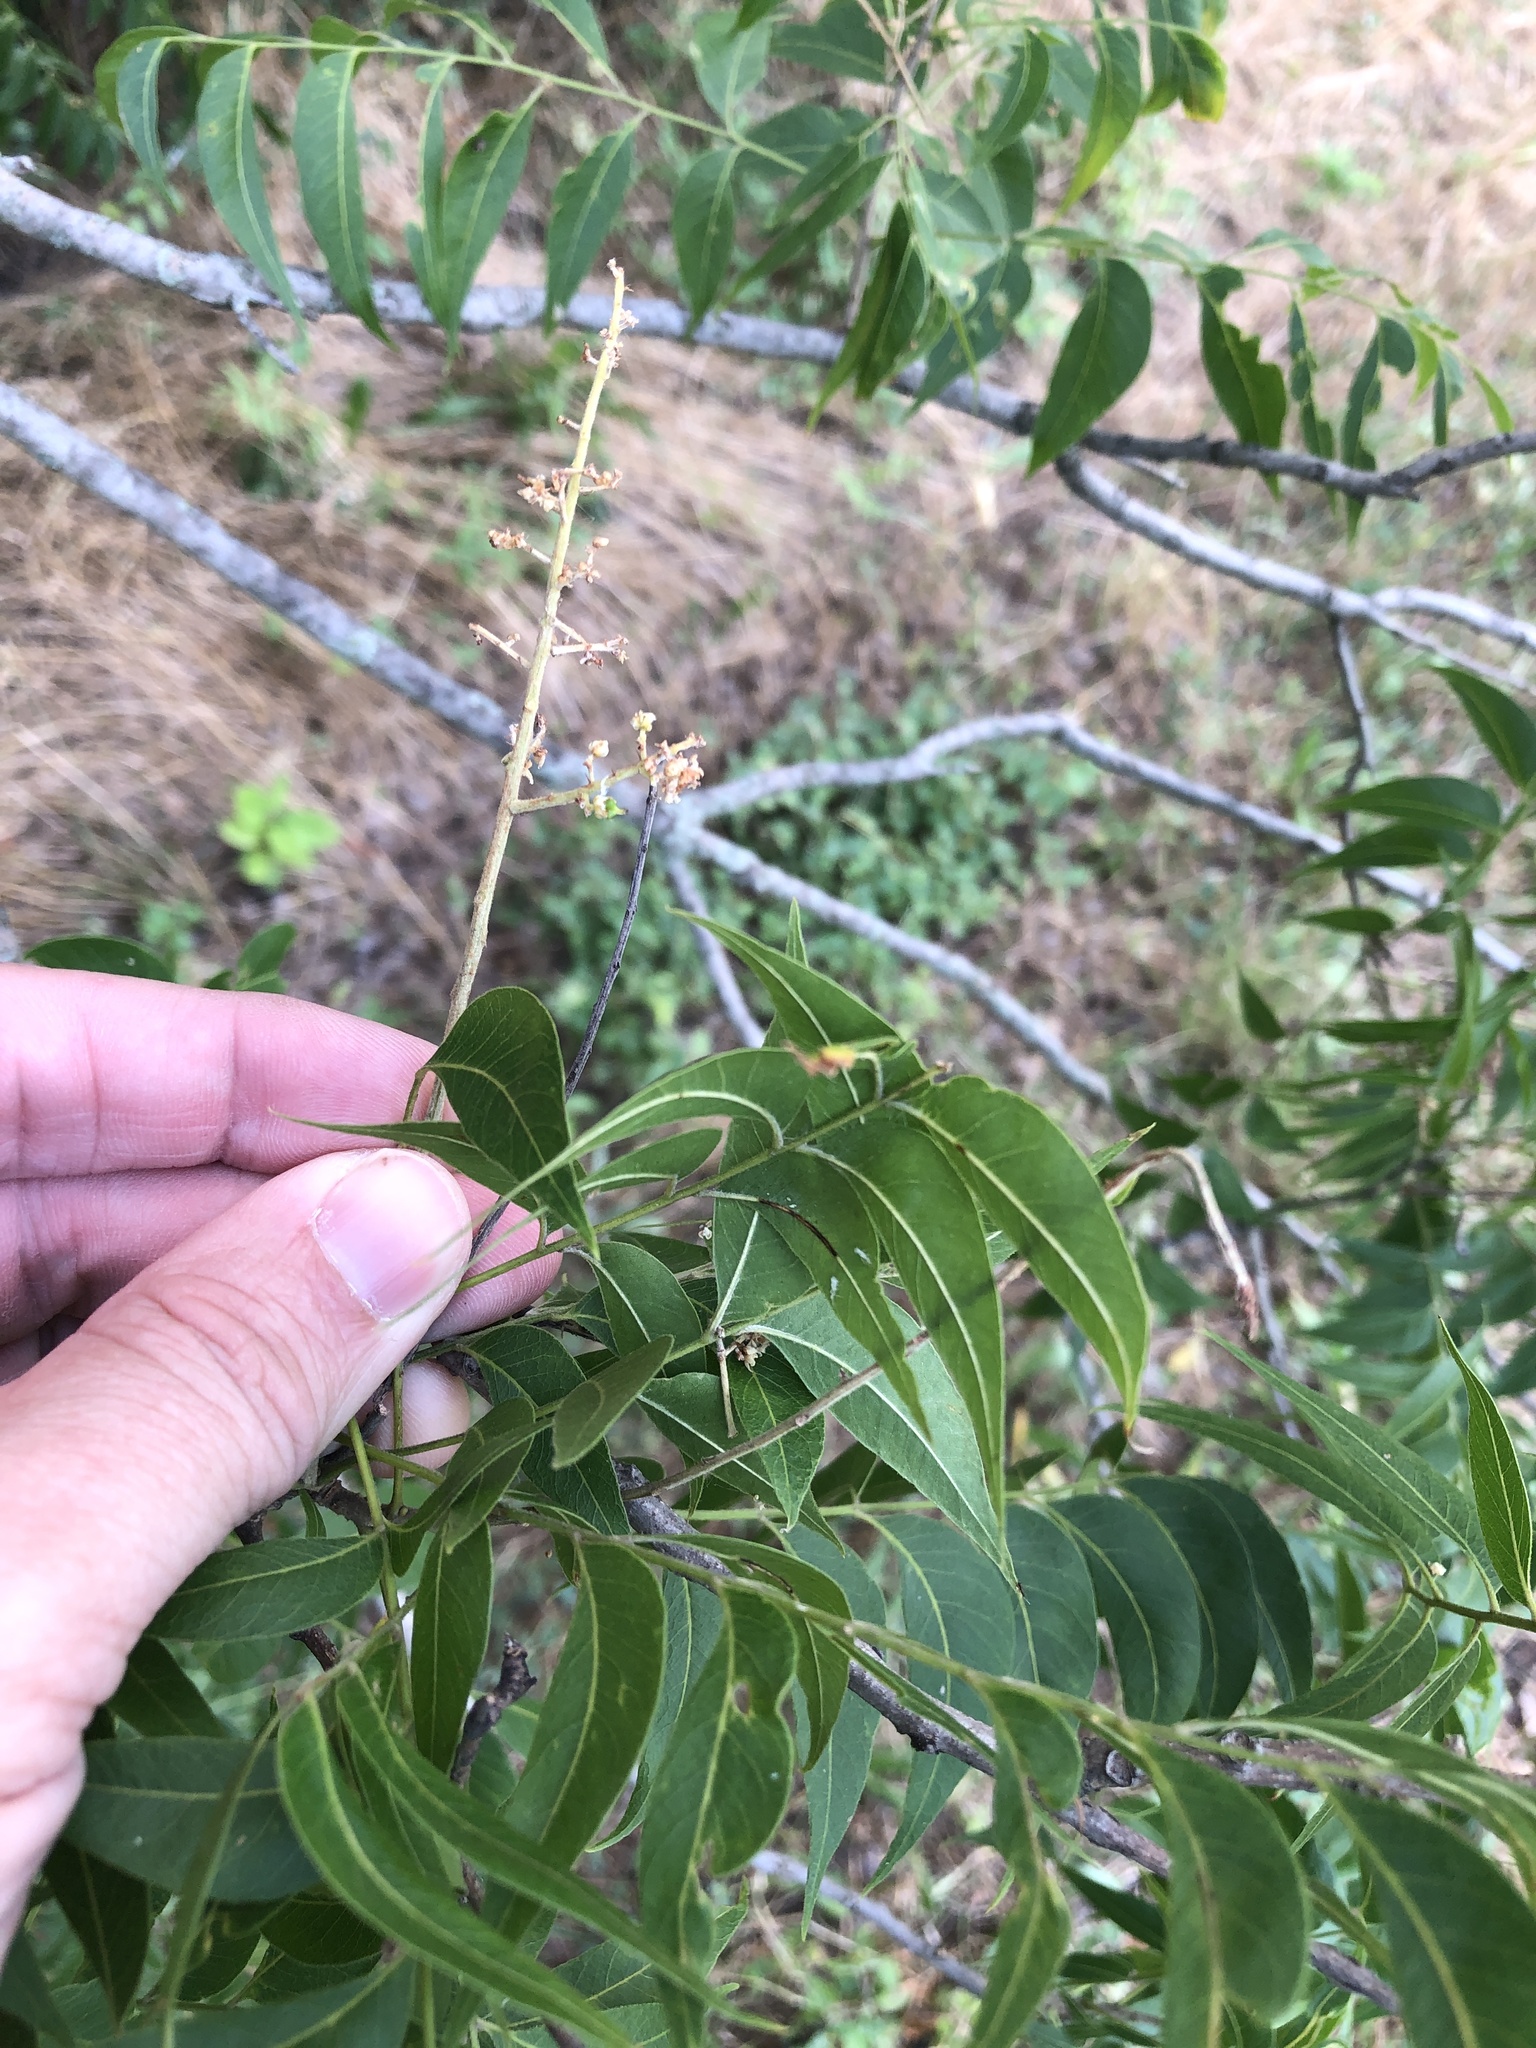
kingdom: Plantae
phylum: Tracheophyta
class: Magnoliopsida
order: Sapindales
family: Sapindaceae
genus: Sapindus
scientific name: Sapindus drummondii
